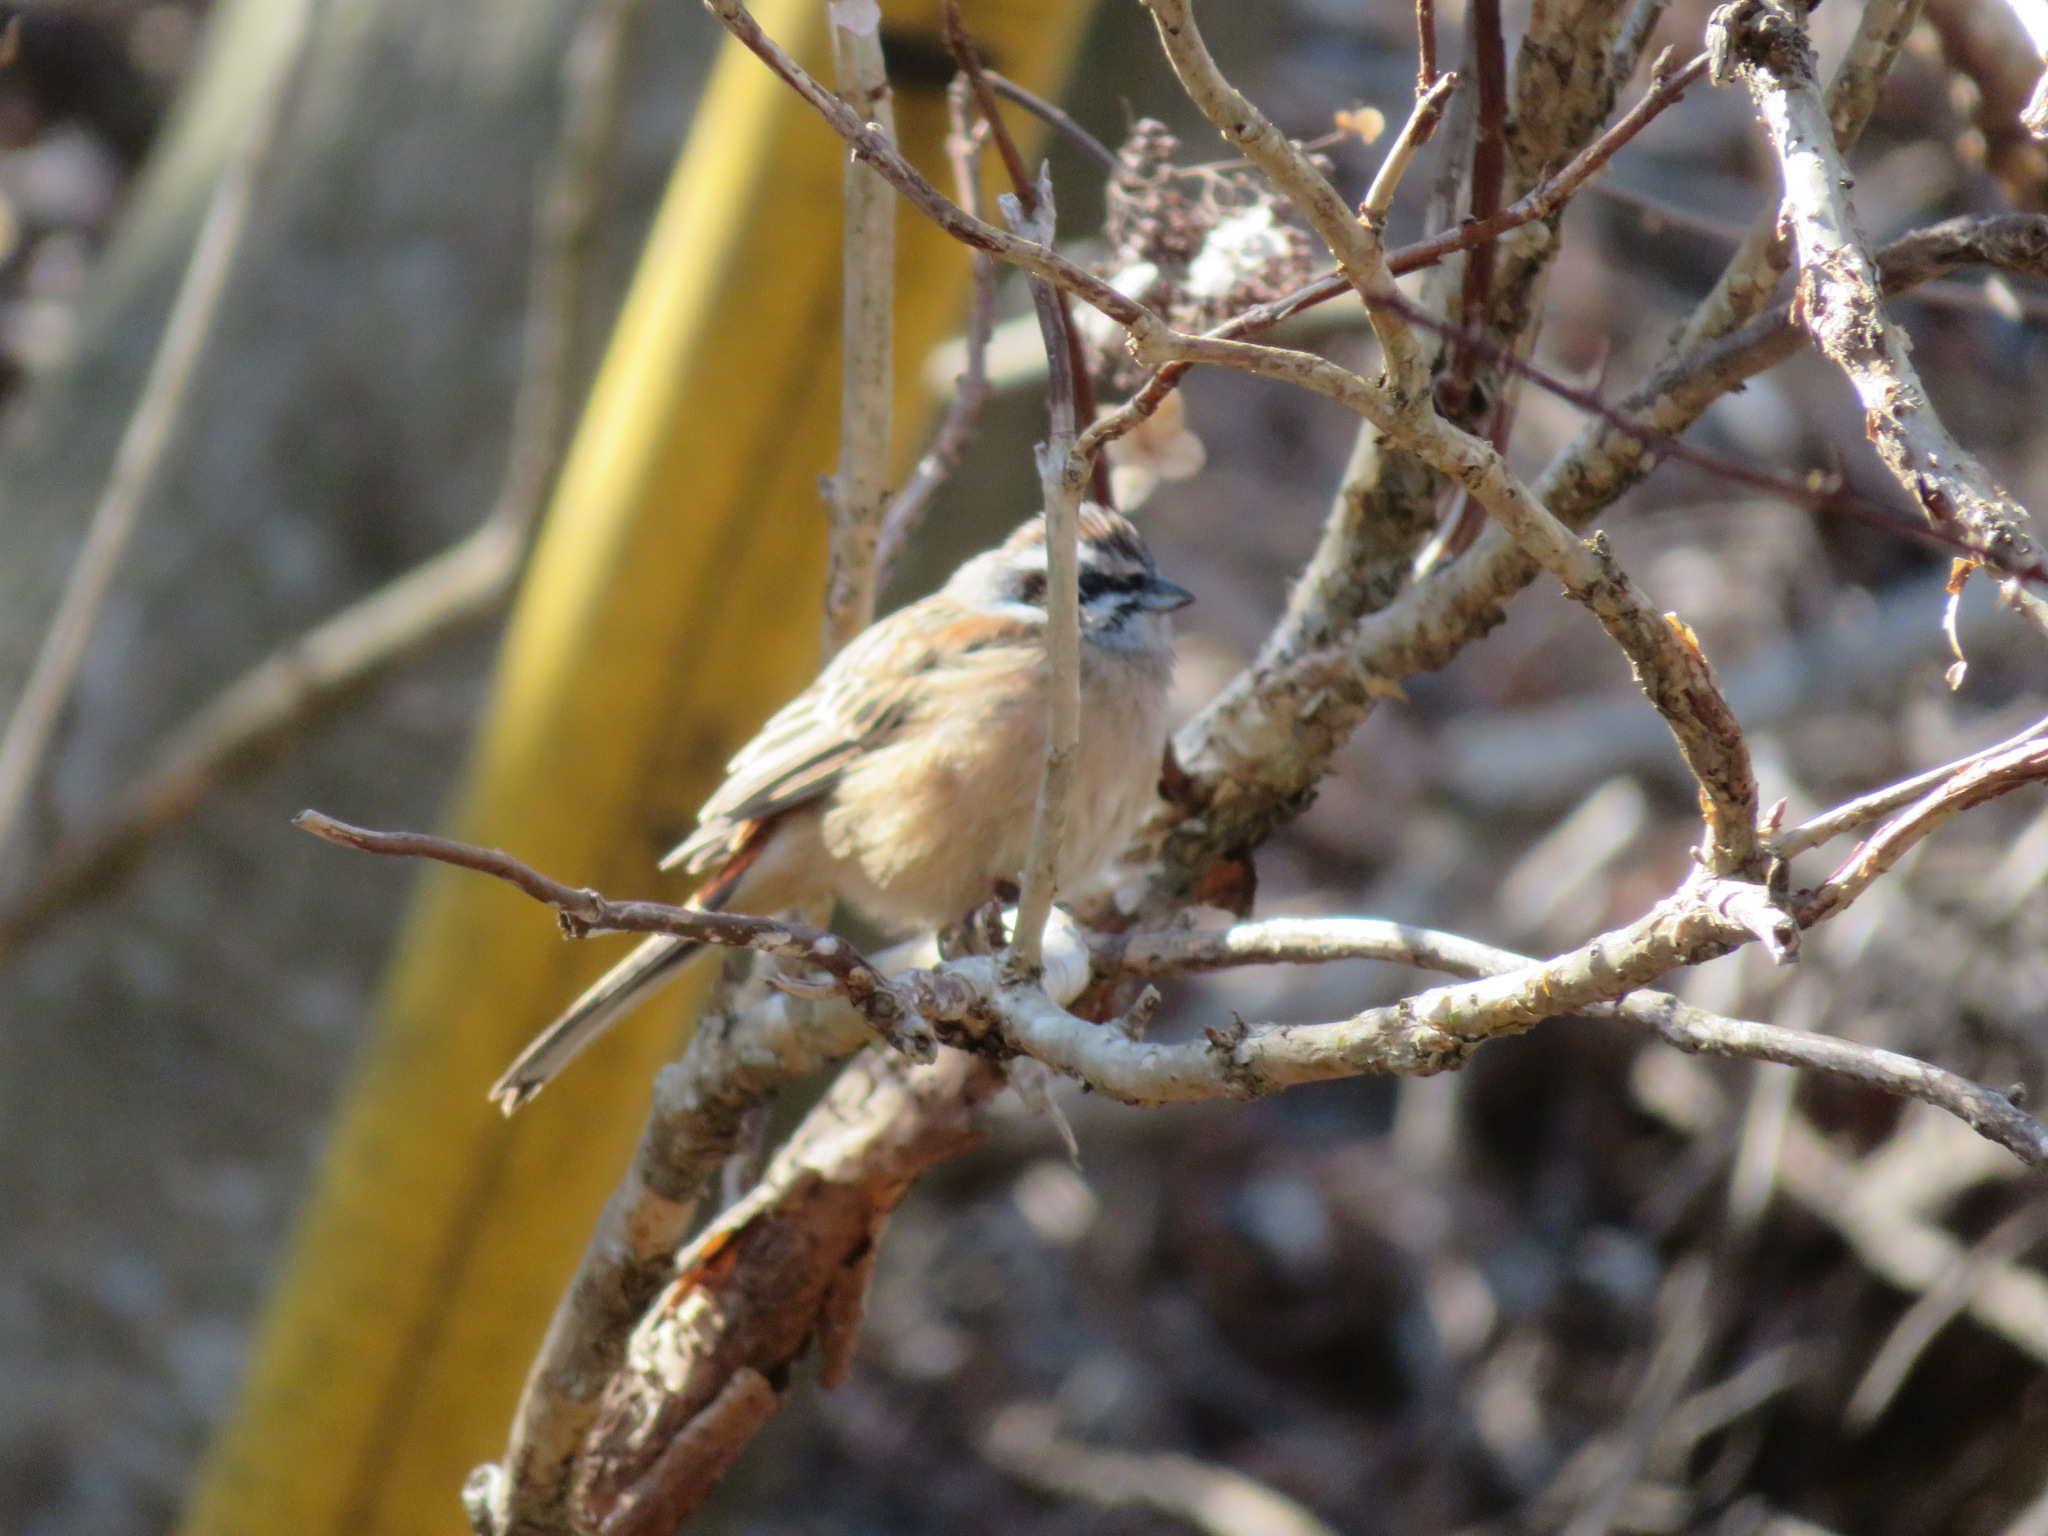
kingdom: Animalia
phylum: Chordata
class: Aves
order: Passeriformes
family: Emberizidae
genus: Emberiza
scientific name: Emberiza cioides
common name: Meadow bunting
